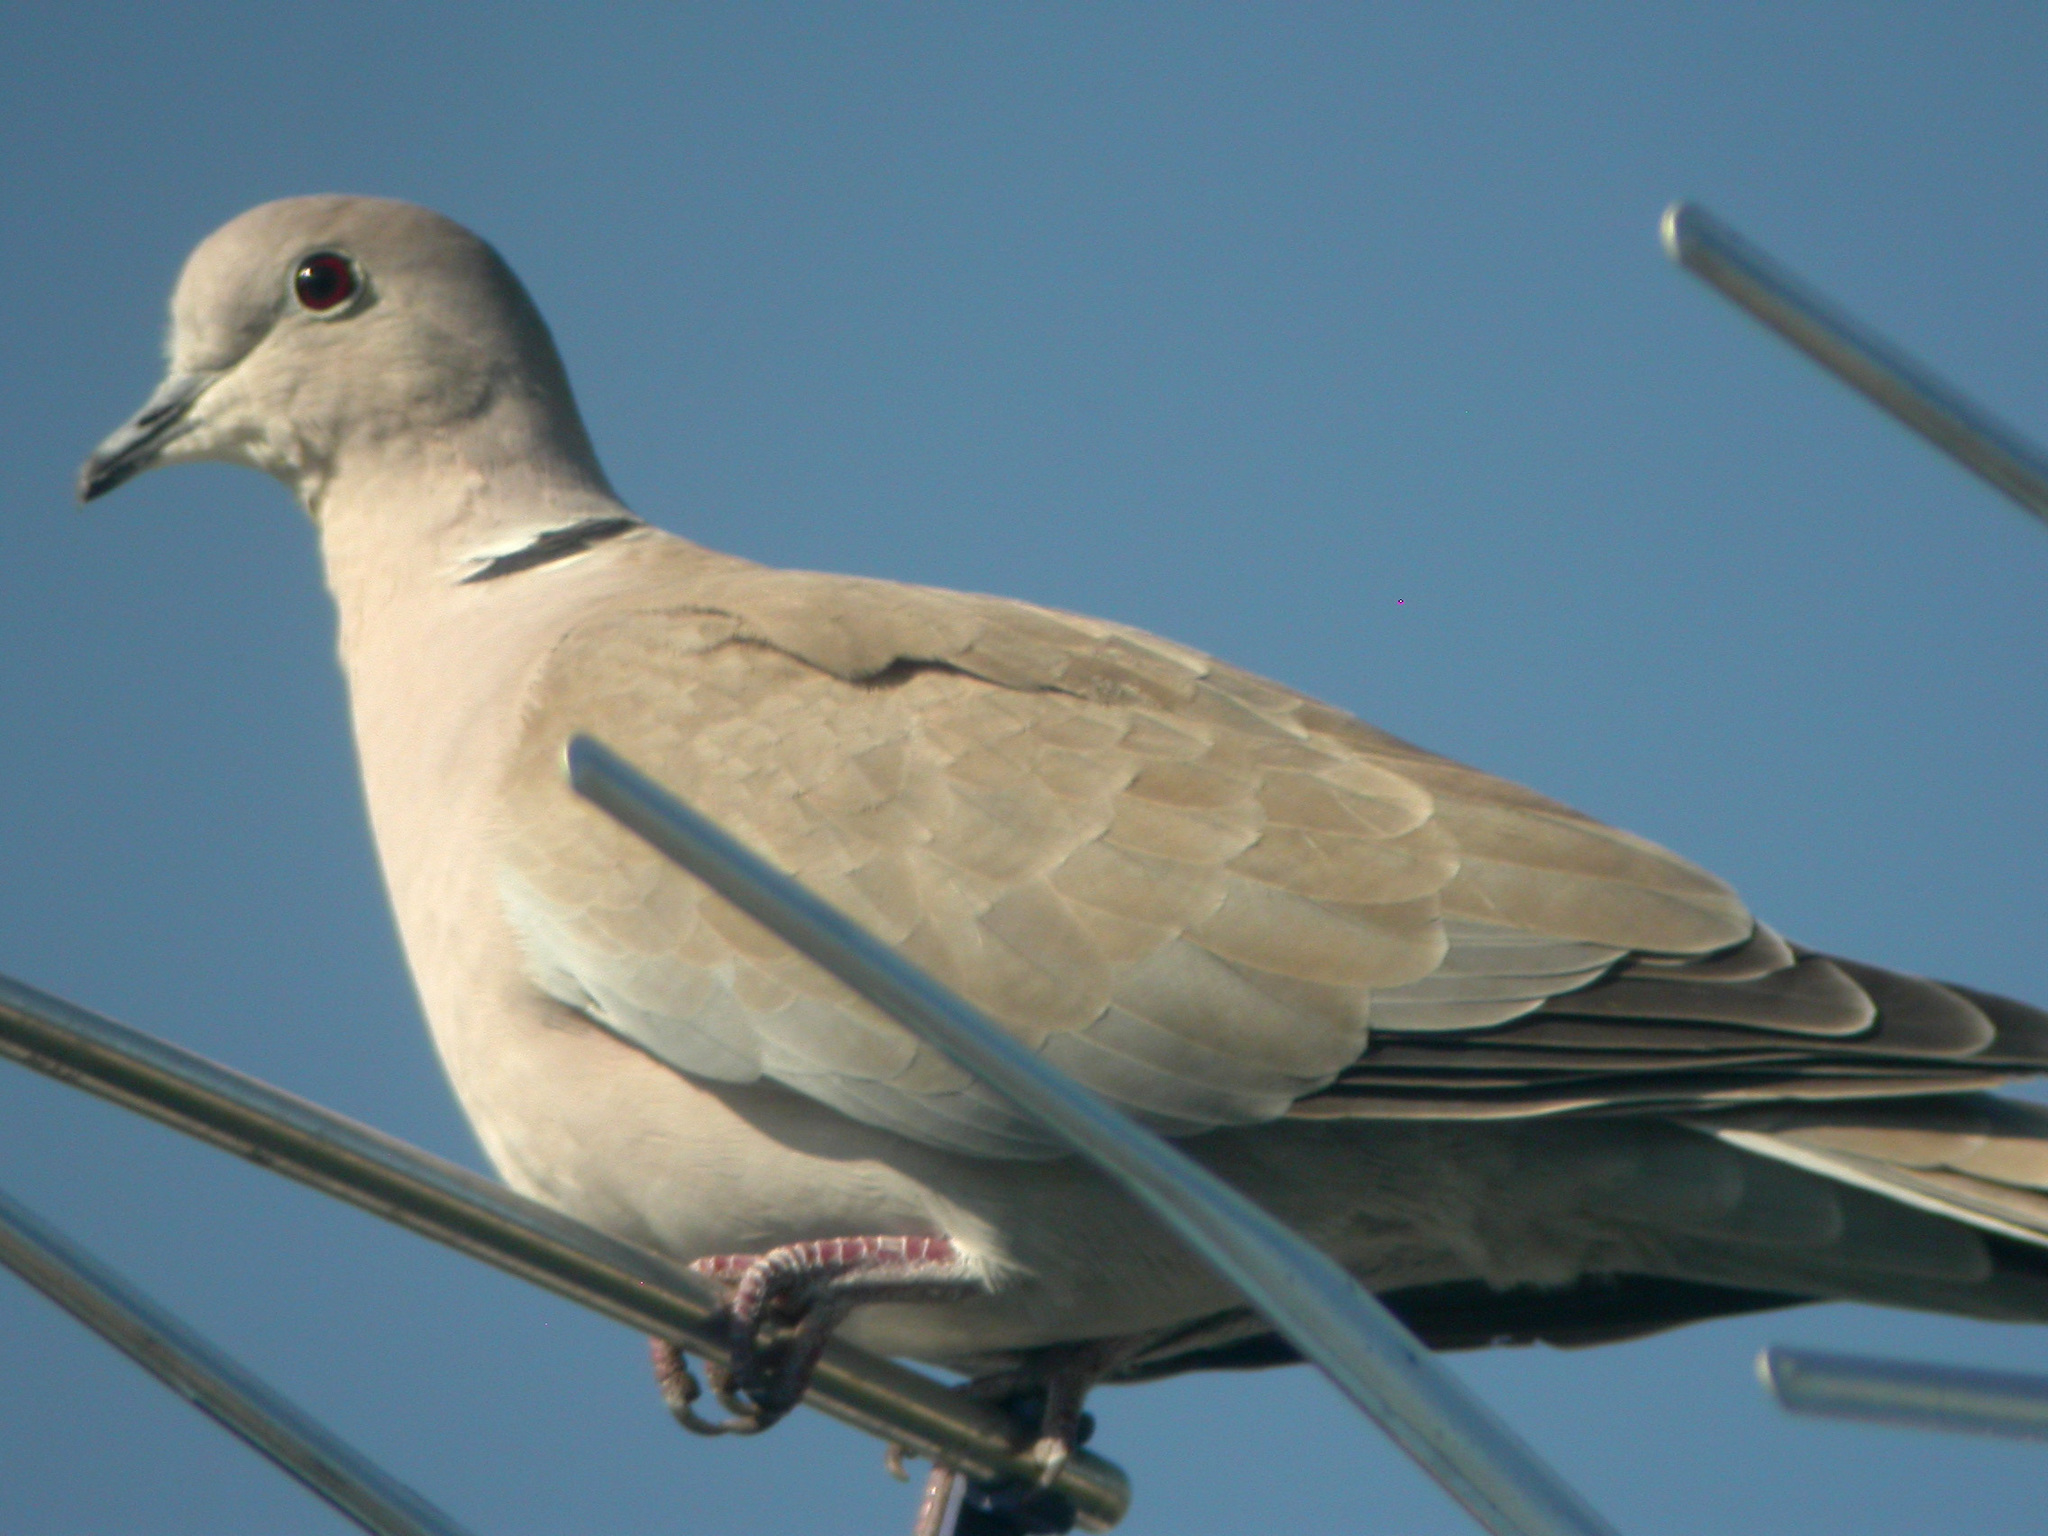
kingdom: Animalia
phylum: Chordata
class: Aves
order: Columbiformes
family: Columbidae
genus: Streptopelia
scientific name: Streptopelia decaocto
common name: Eurasian collared dove
